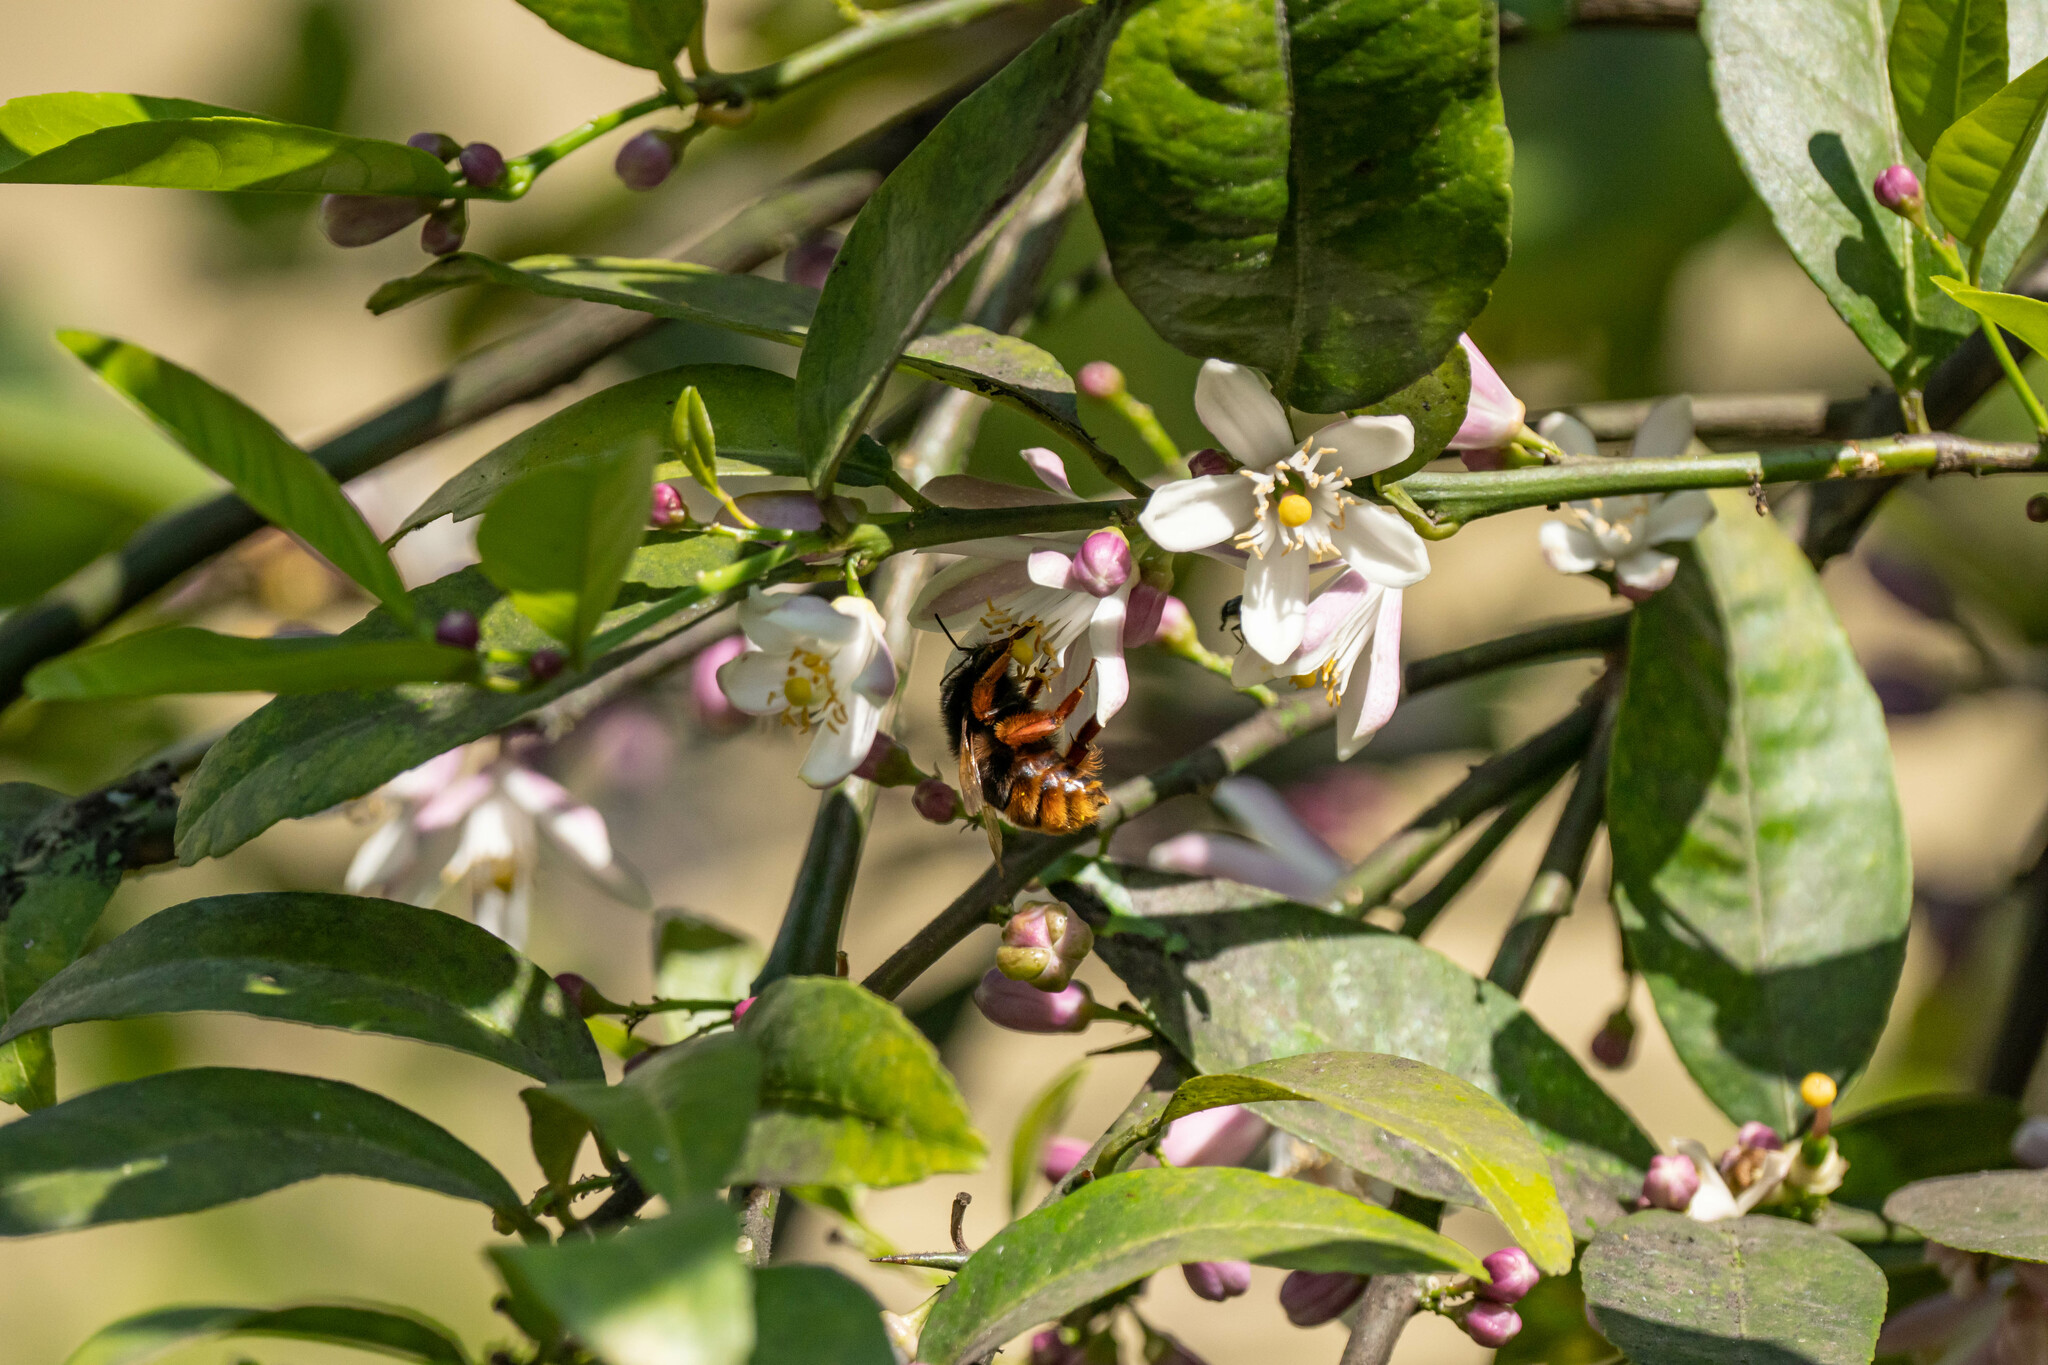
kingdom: Animalia
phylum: Arthropoda
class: Insecta
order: Hymenoptera
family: Apidae
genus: Bombus
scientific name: Bombus eximius
